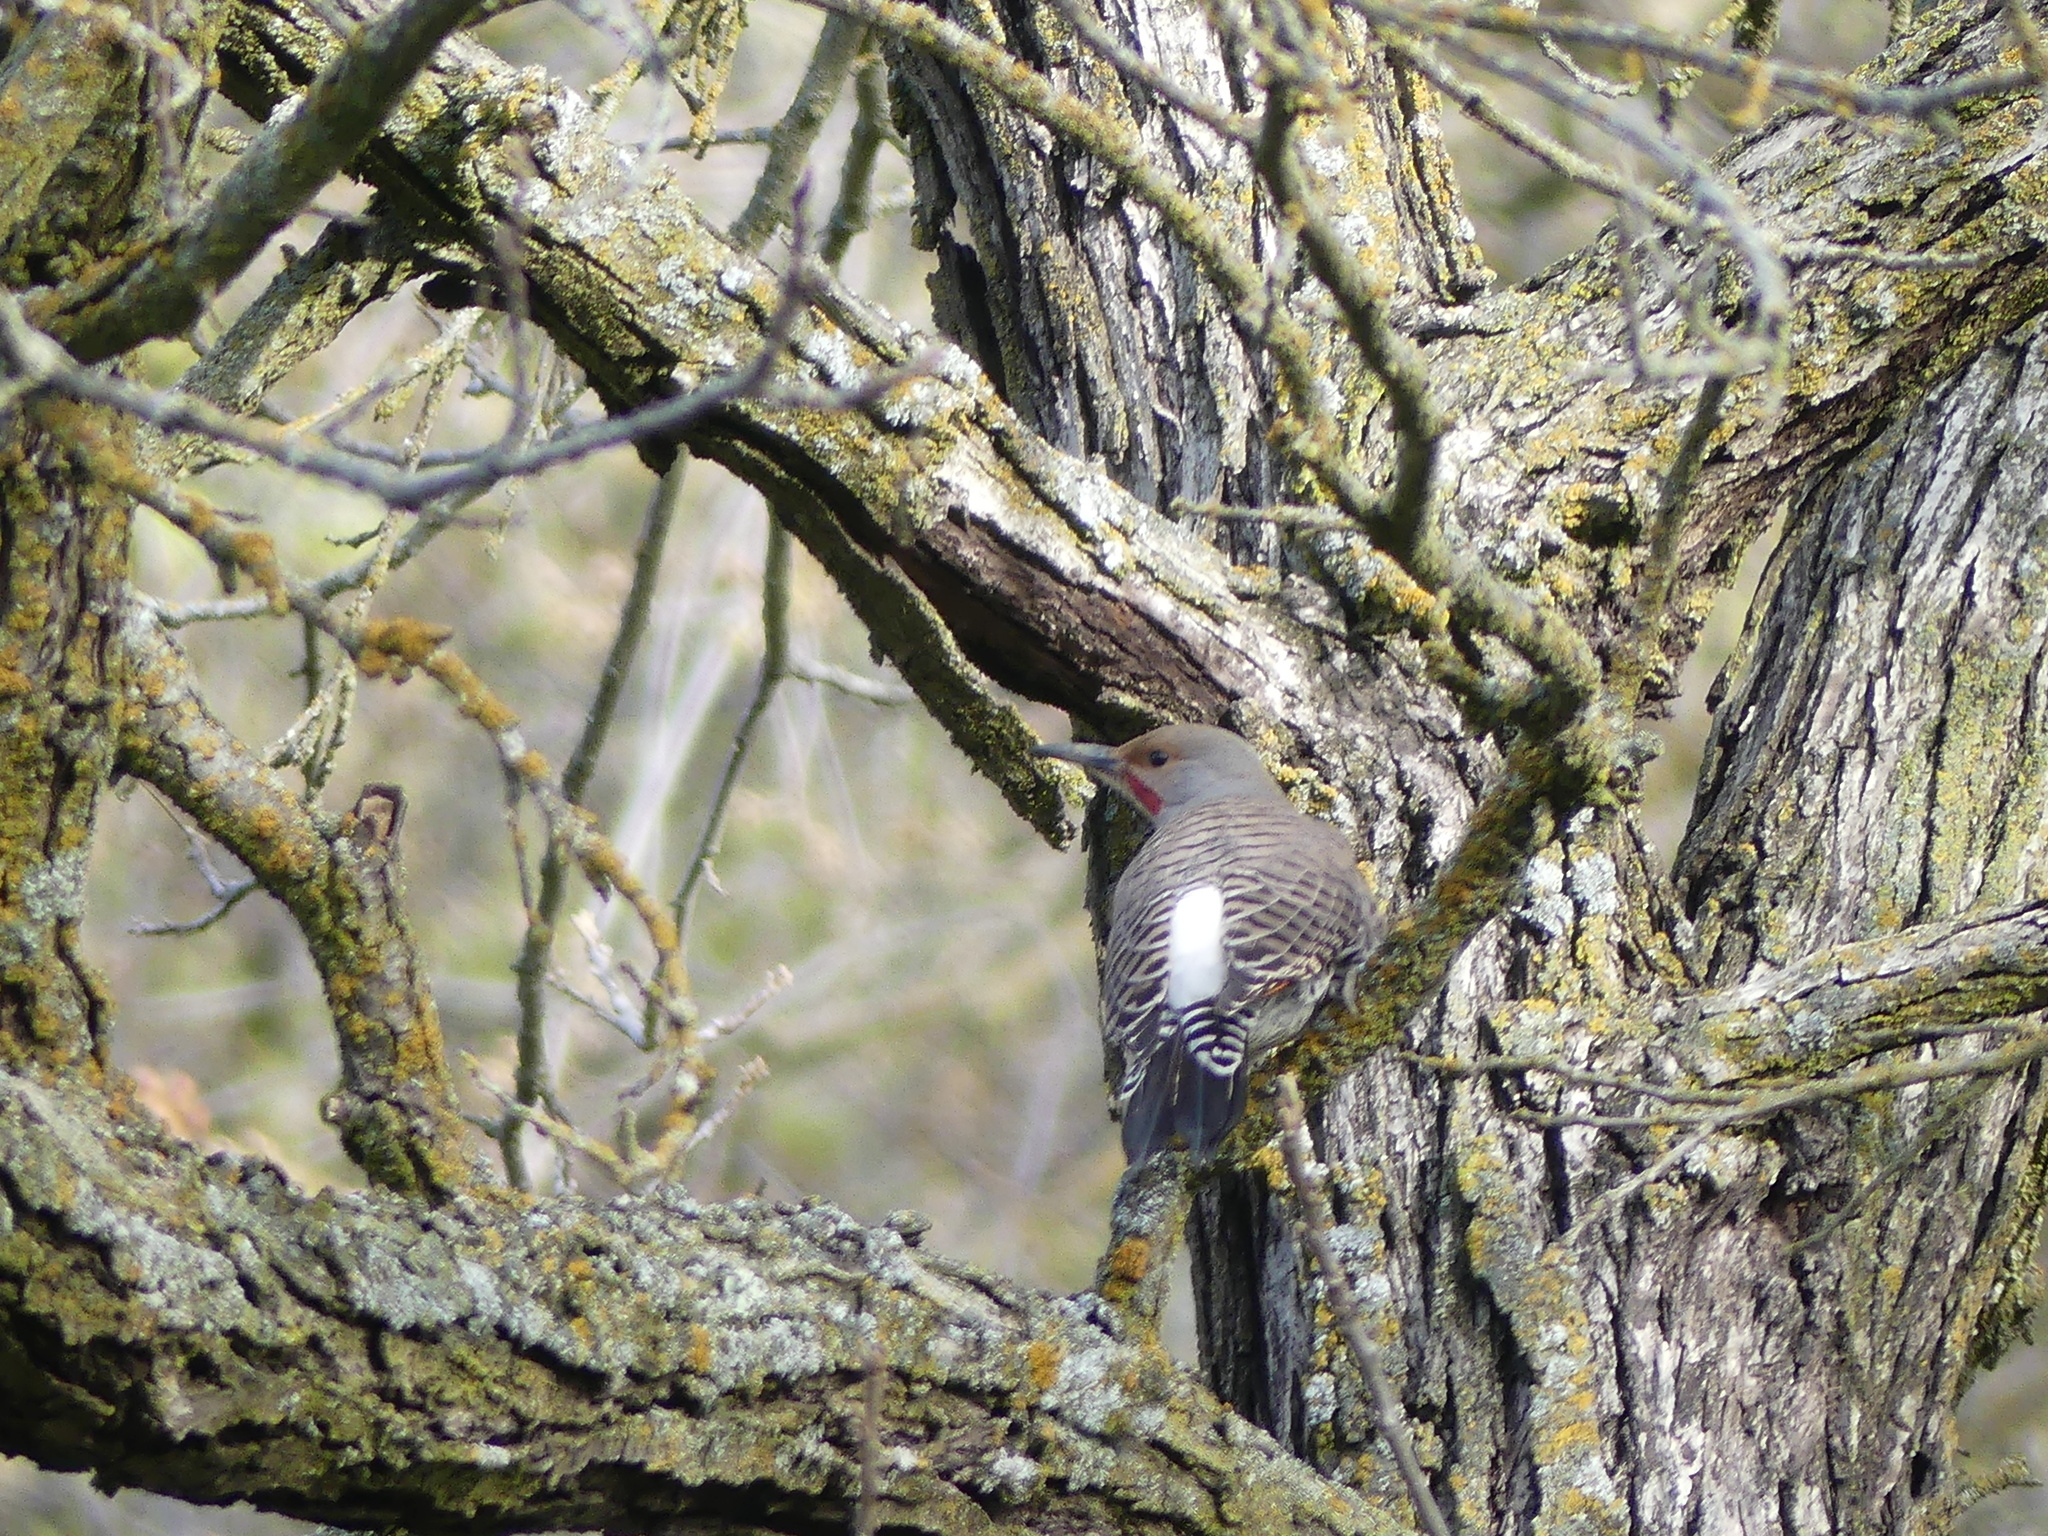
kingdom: Animalia
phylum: Chordata
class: Aves
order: Piciformes
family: Picidae
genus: Colaptes
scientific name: Colaptes auratus
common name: Northern flicker
